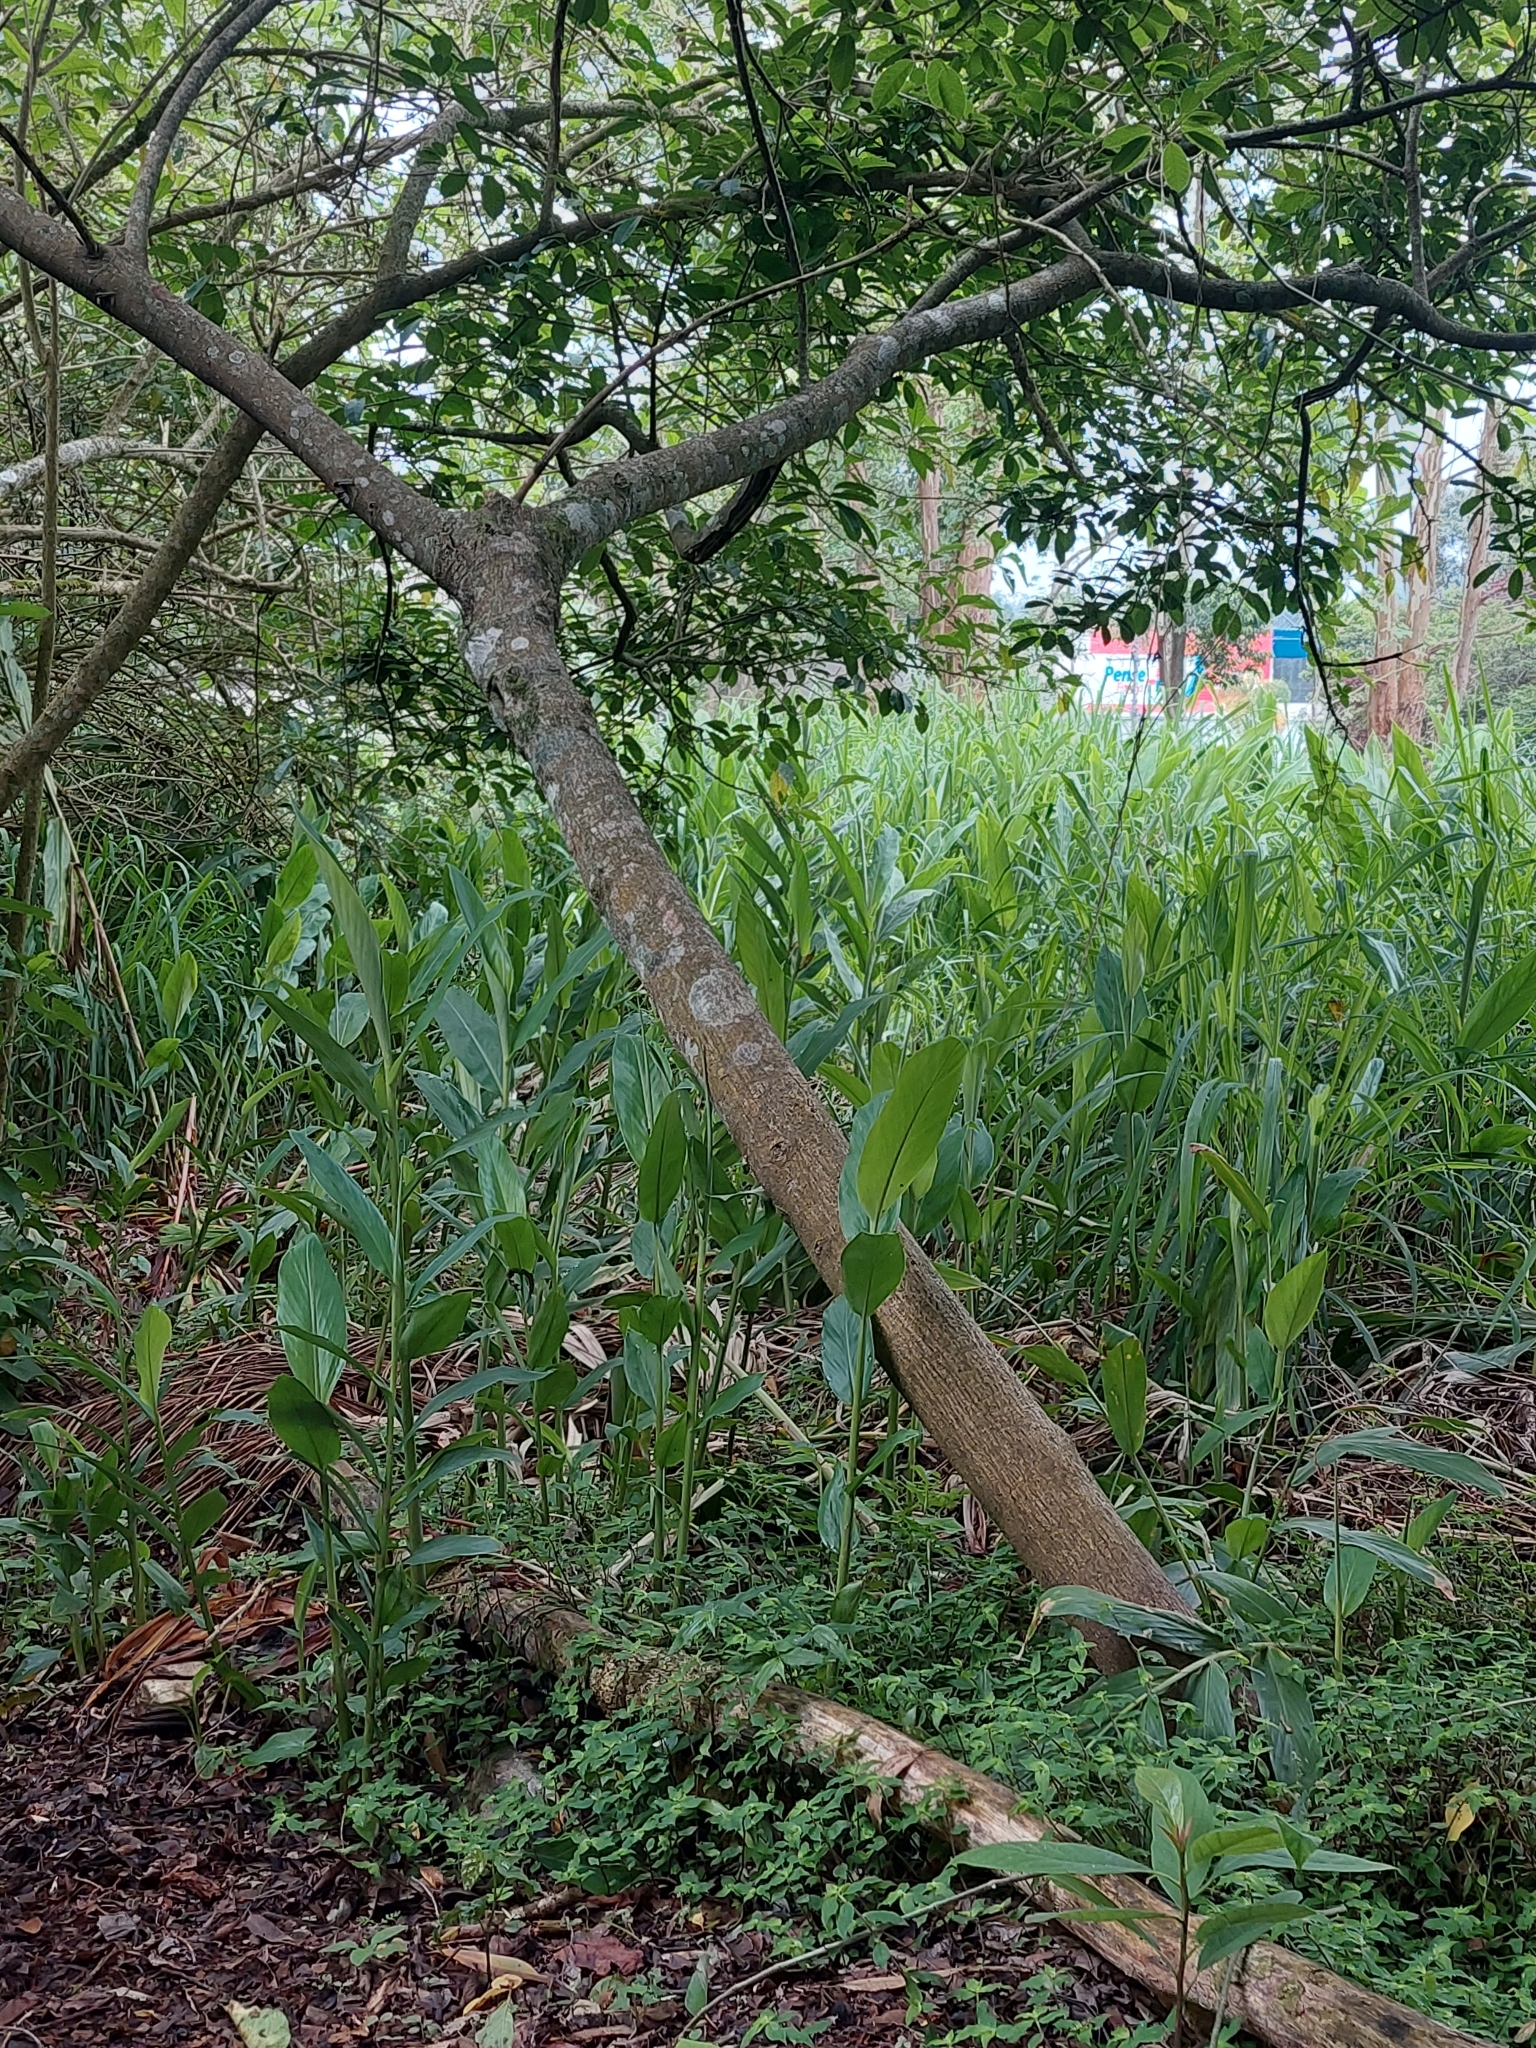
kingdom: Plantae
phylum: Tracheophyta
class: Liliopsida
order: Zingiberales
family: Zingiberaceae
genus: Hedychium
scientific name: Hedychium coronarium
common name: White garland-lily
